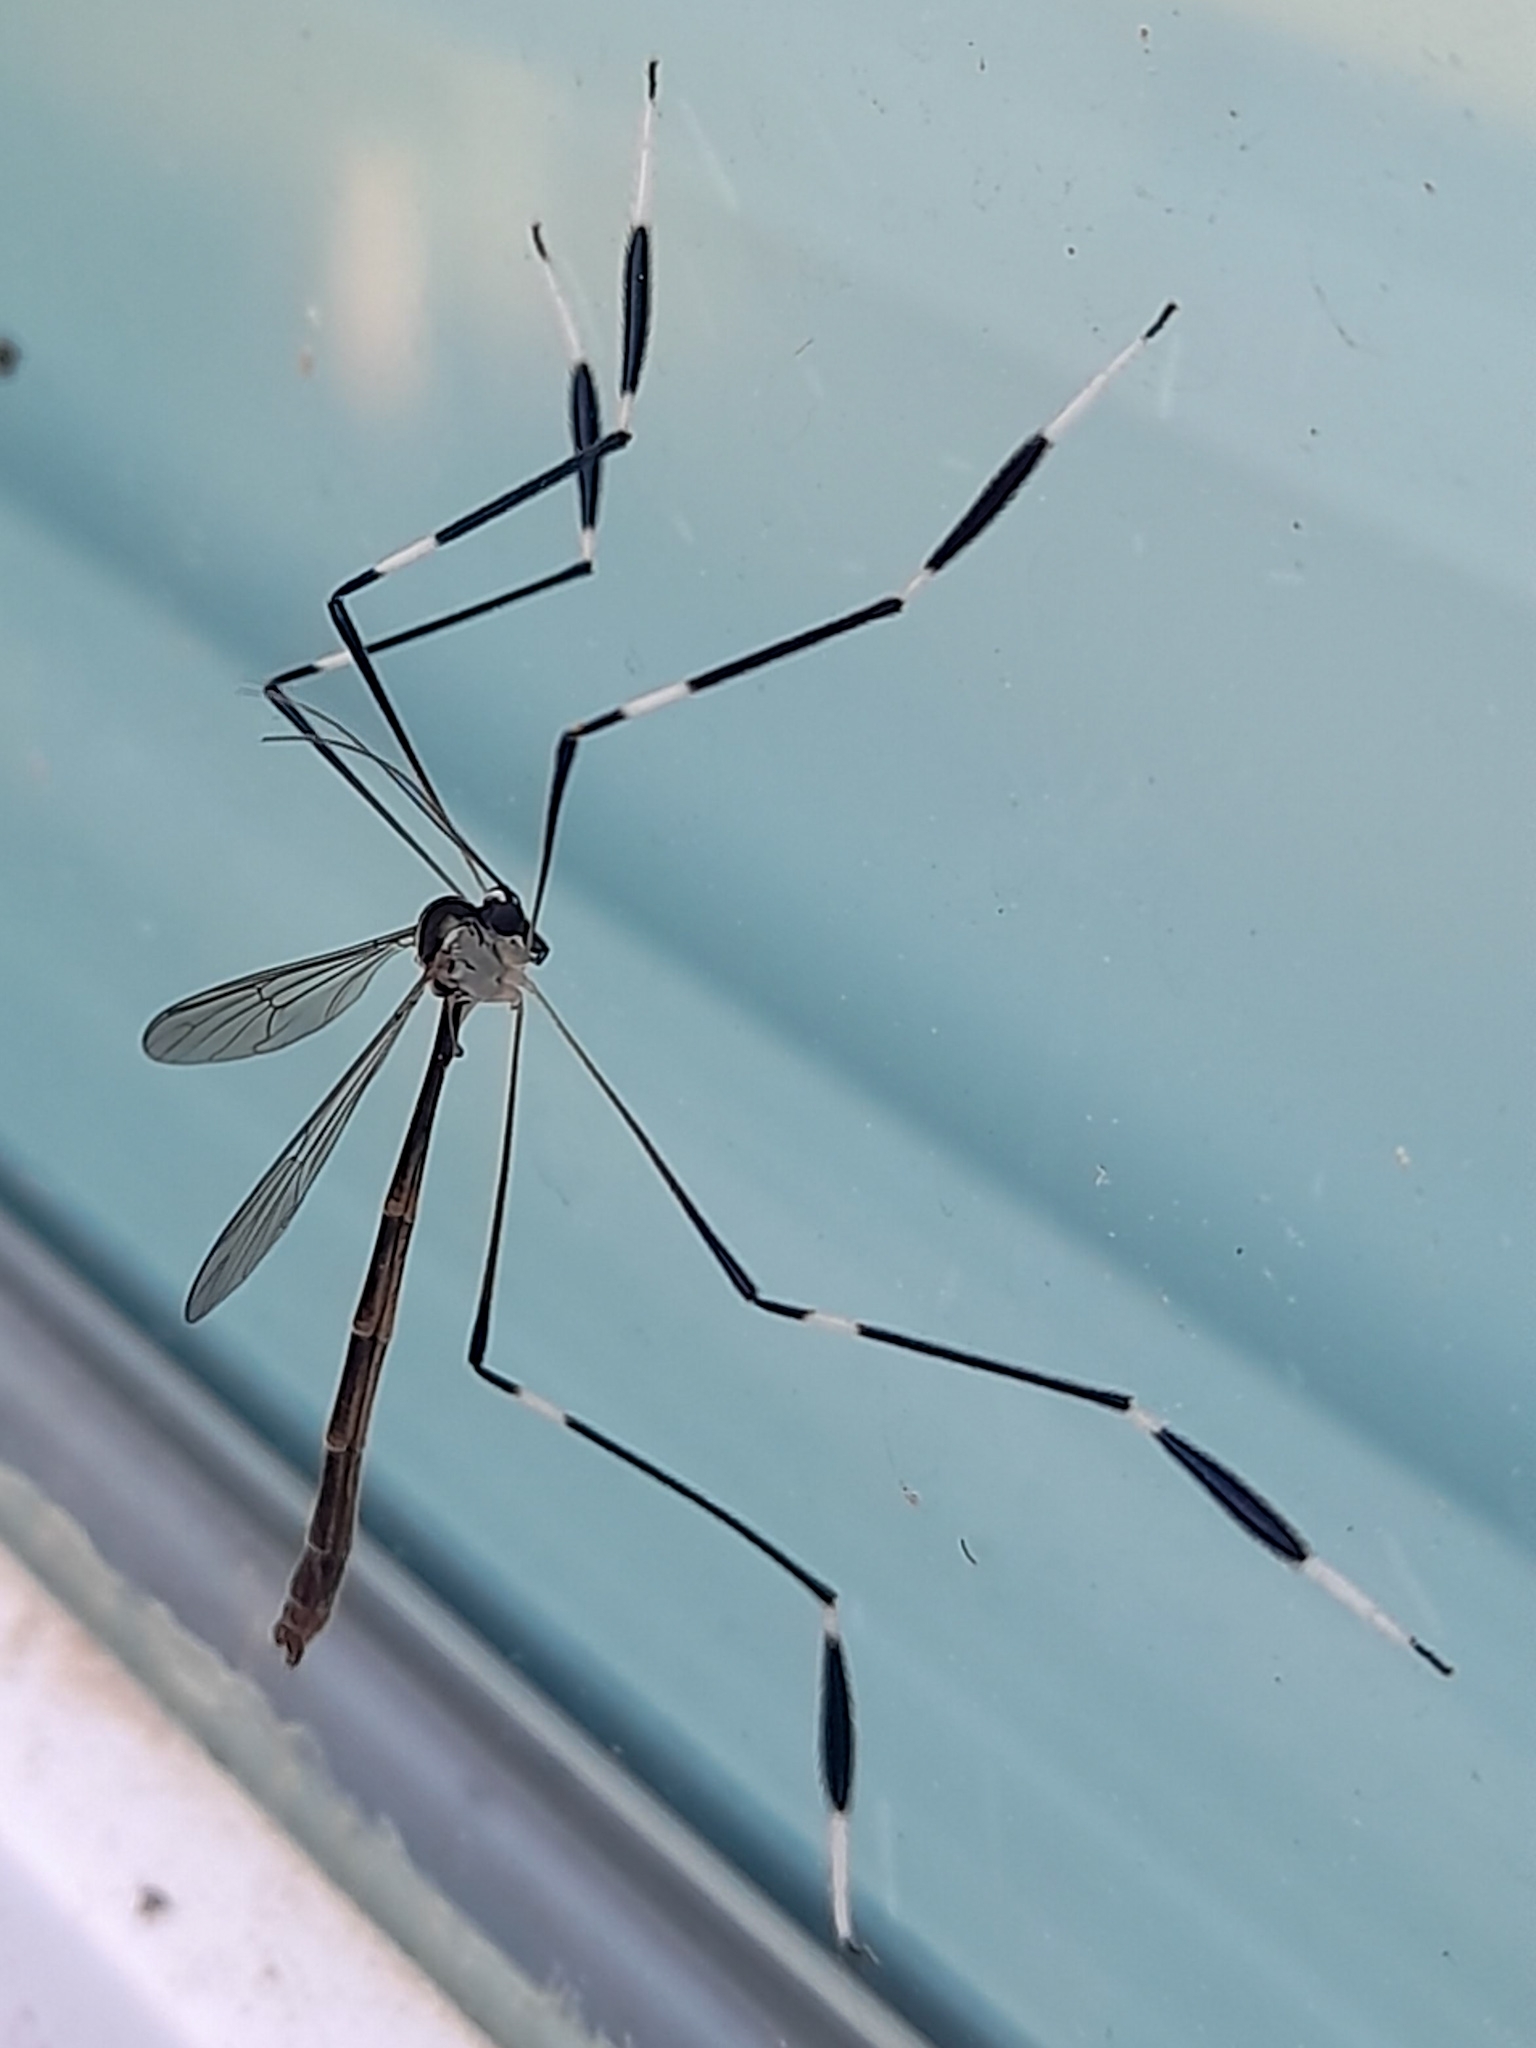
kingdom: Animalia
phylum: Arthropoda
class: Insecta
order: Diptera
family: Ptychopteridae
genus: Bittacomorpha
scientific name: Bittacomorpha clavipes
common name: Eastern phantom crane fly
